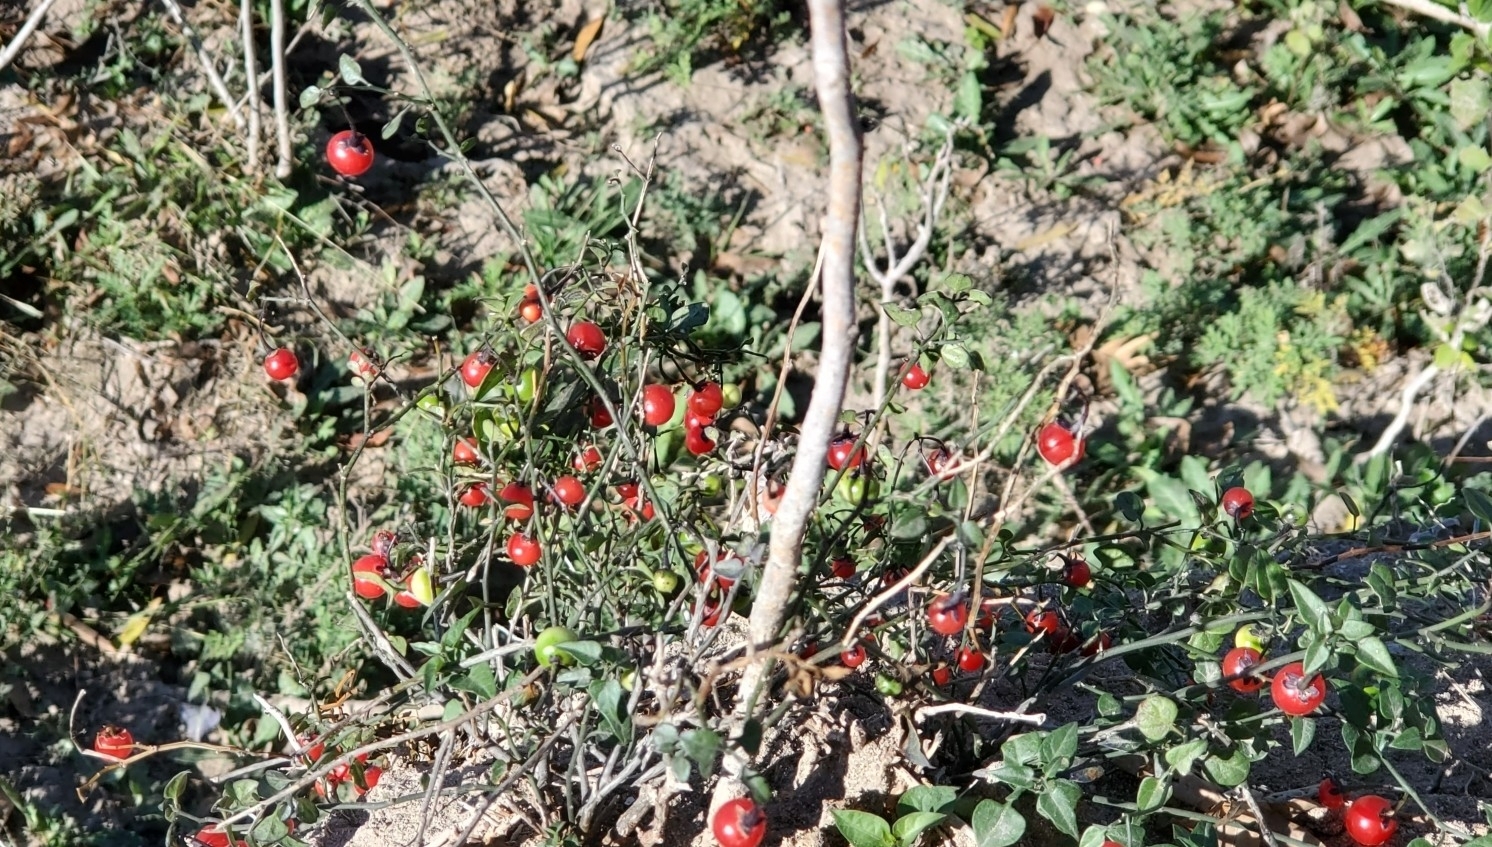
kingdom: Plantae
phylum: Tracheophyta
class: Magnoliopsida
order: Solanales
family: Solanaceae
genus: Solanum
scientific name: Solanum triquetrum
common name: Texas nightshade
